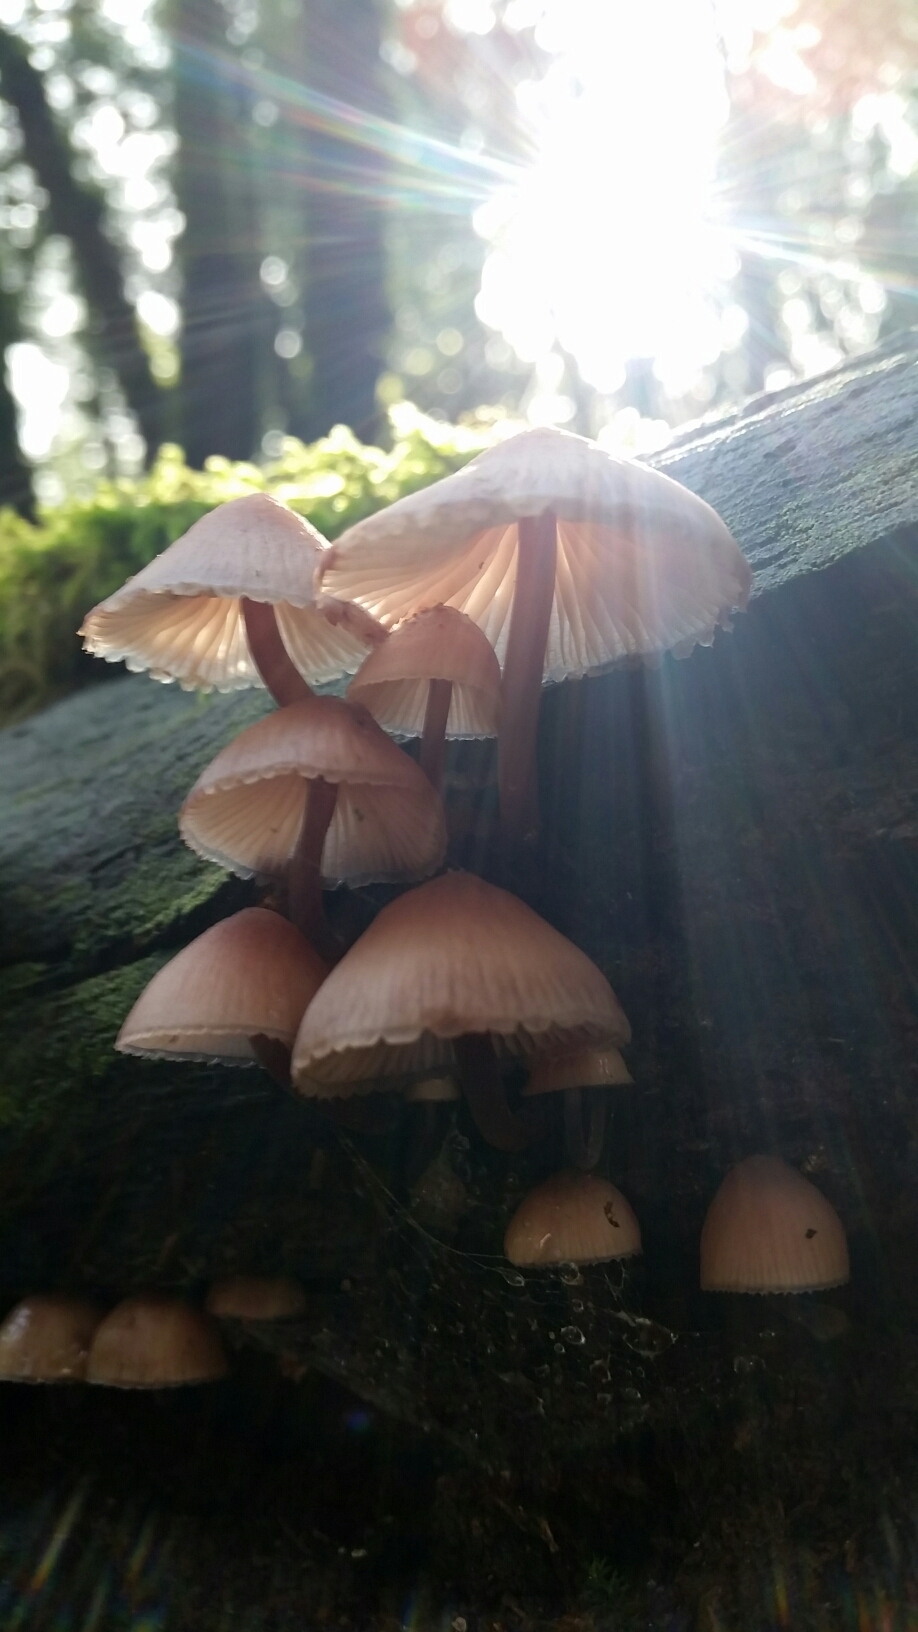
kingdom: Fungi
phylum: Basidiomycota
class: Agaricomycetes
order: Agaricales
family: Mycenaceae
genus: Mycena
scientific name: Mycena haematopus
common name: Burgundydrop bonnet
